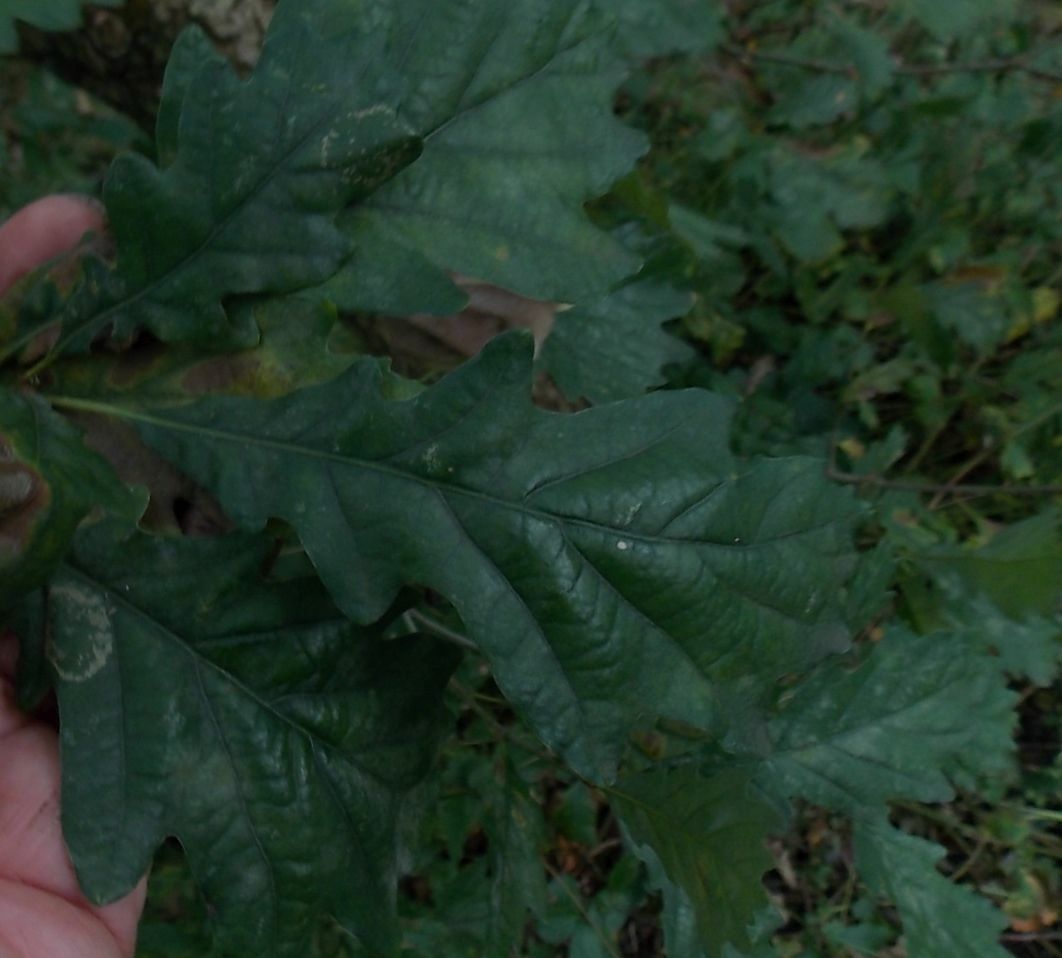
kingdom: Plantae
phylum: Tracheophyta
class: Magnoliopsida
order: Fagales
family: Fagaceae
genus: Quercus
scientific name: Quercus petraea
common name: Sessile oak
